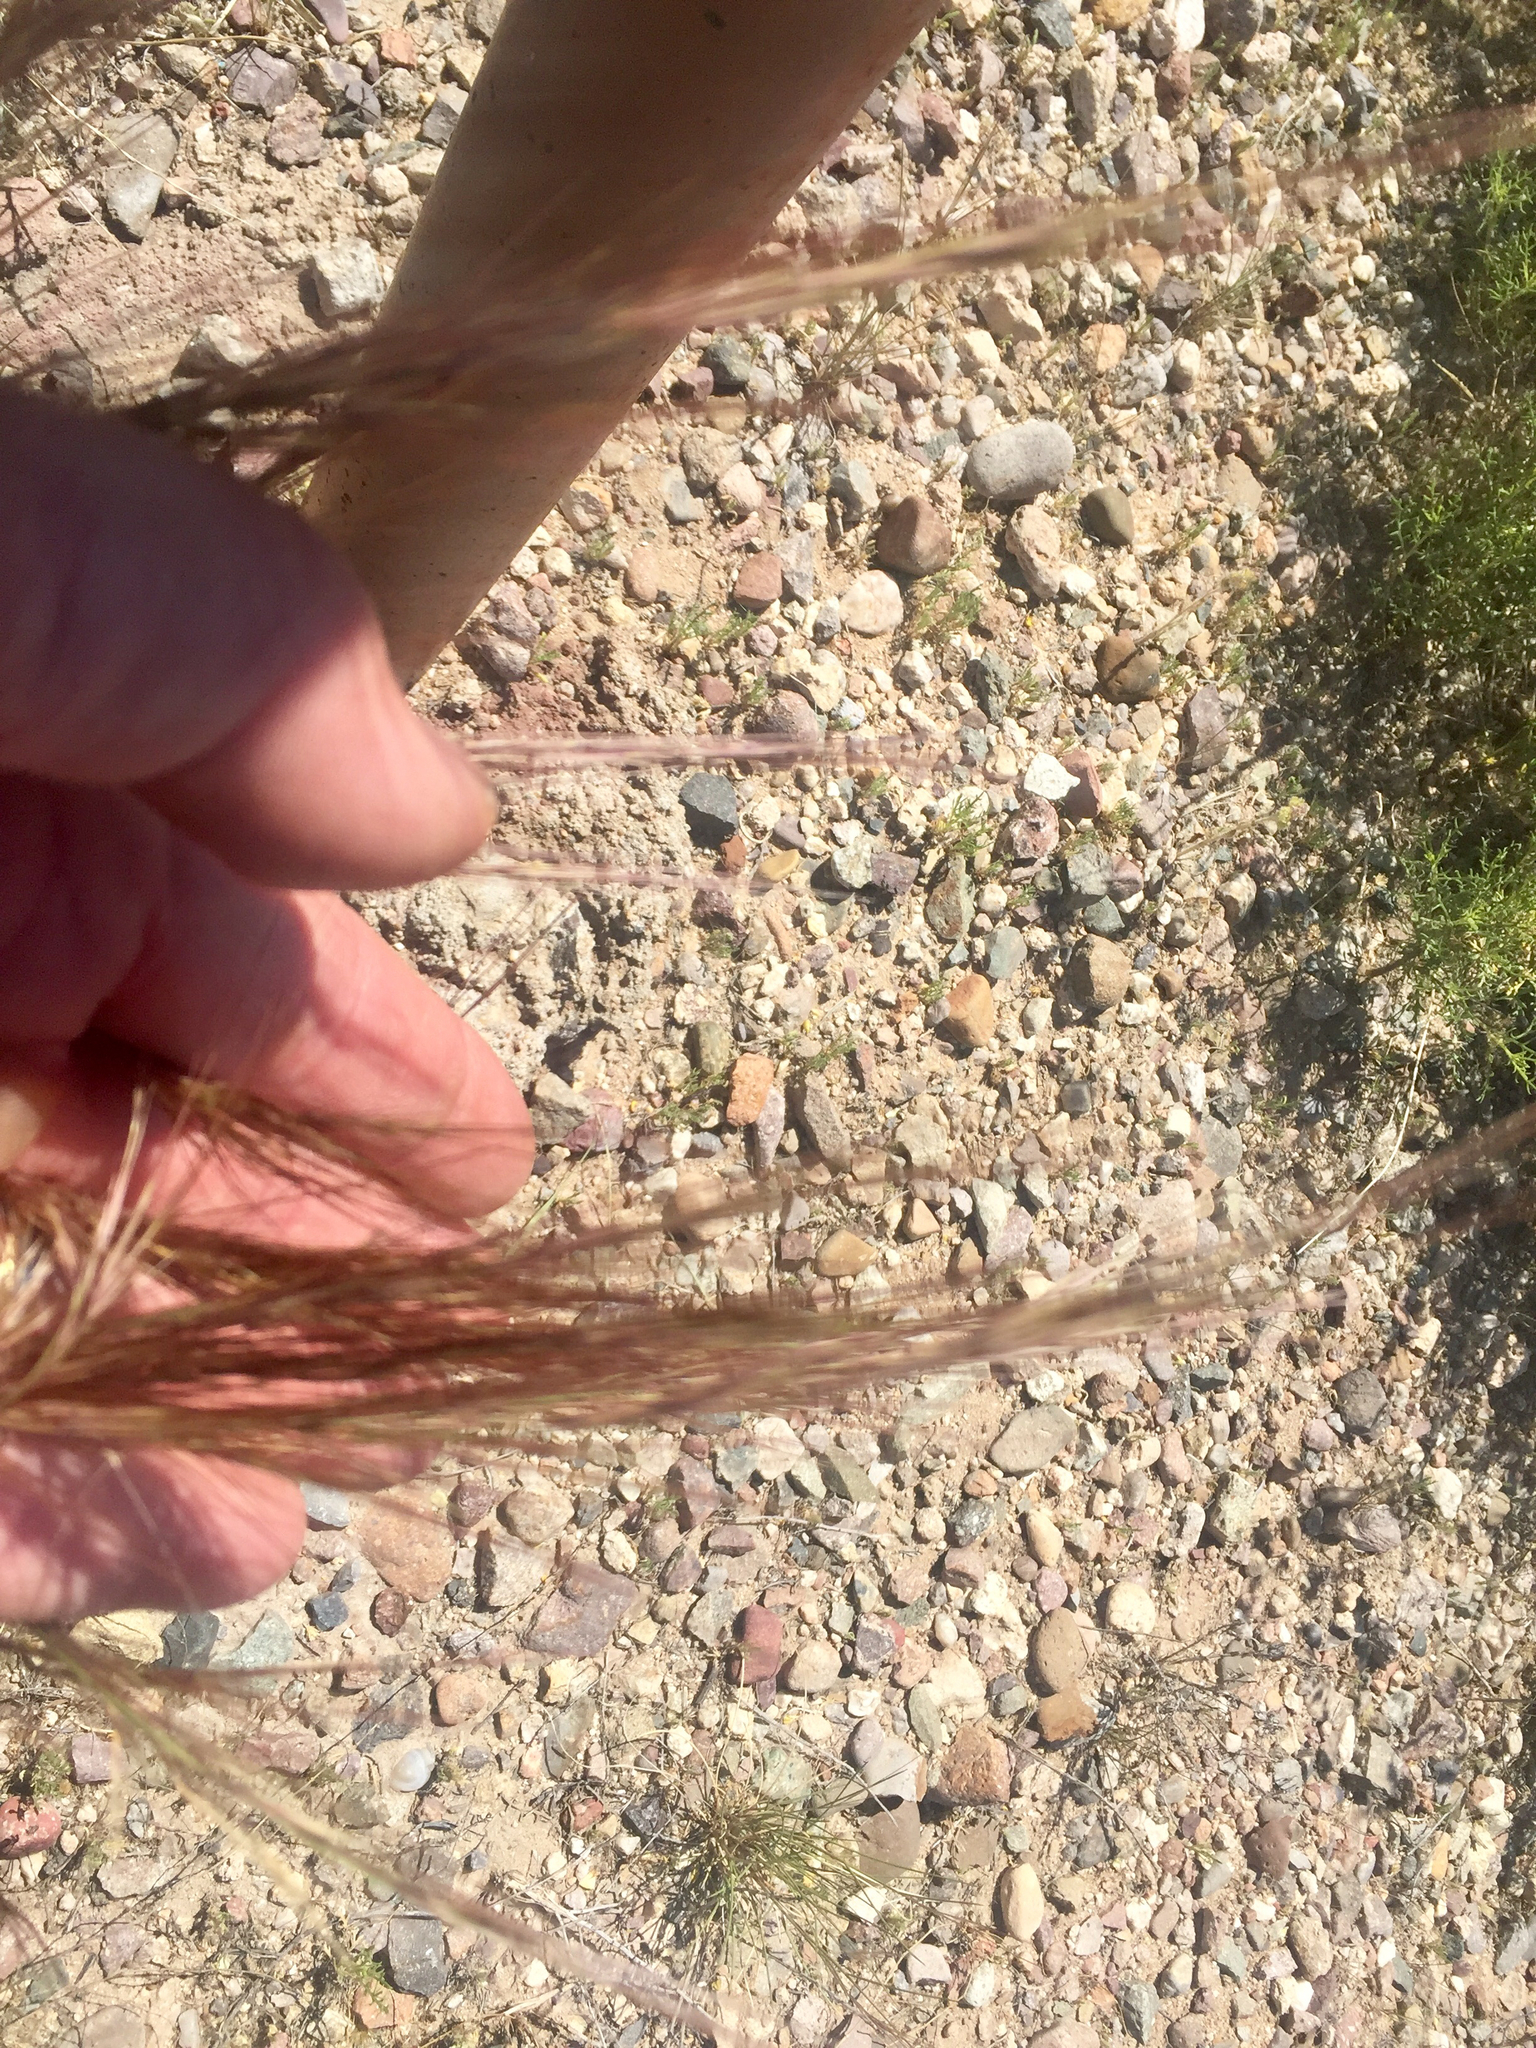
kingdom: Plantae
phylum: Tracheophyta
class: Liliopsida
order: Poales
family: Poaceae
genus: Aristida
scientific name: Aristida purpurea
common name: Purple threeawn
